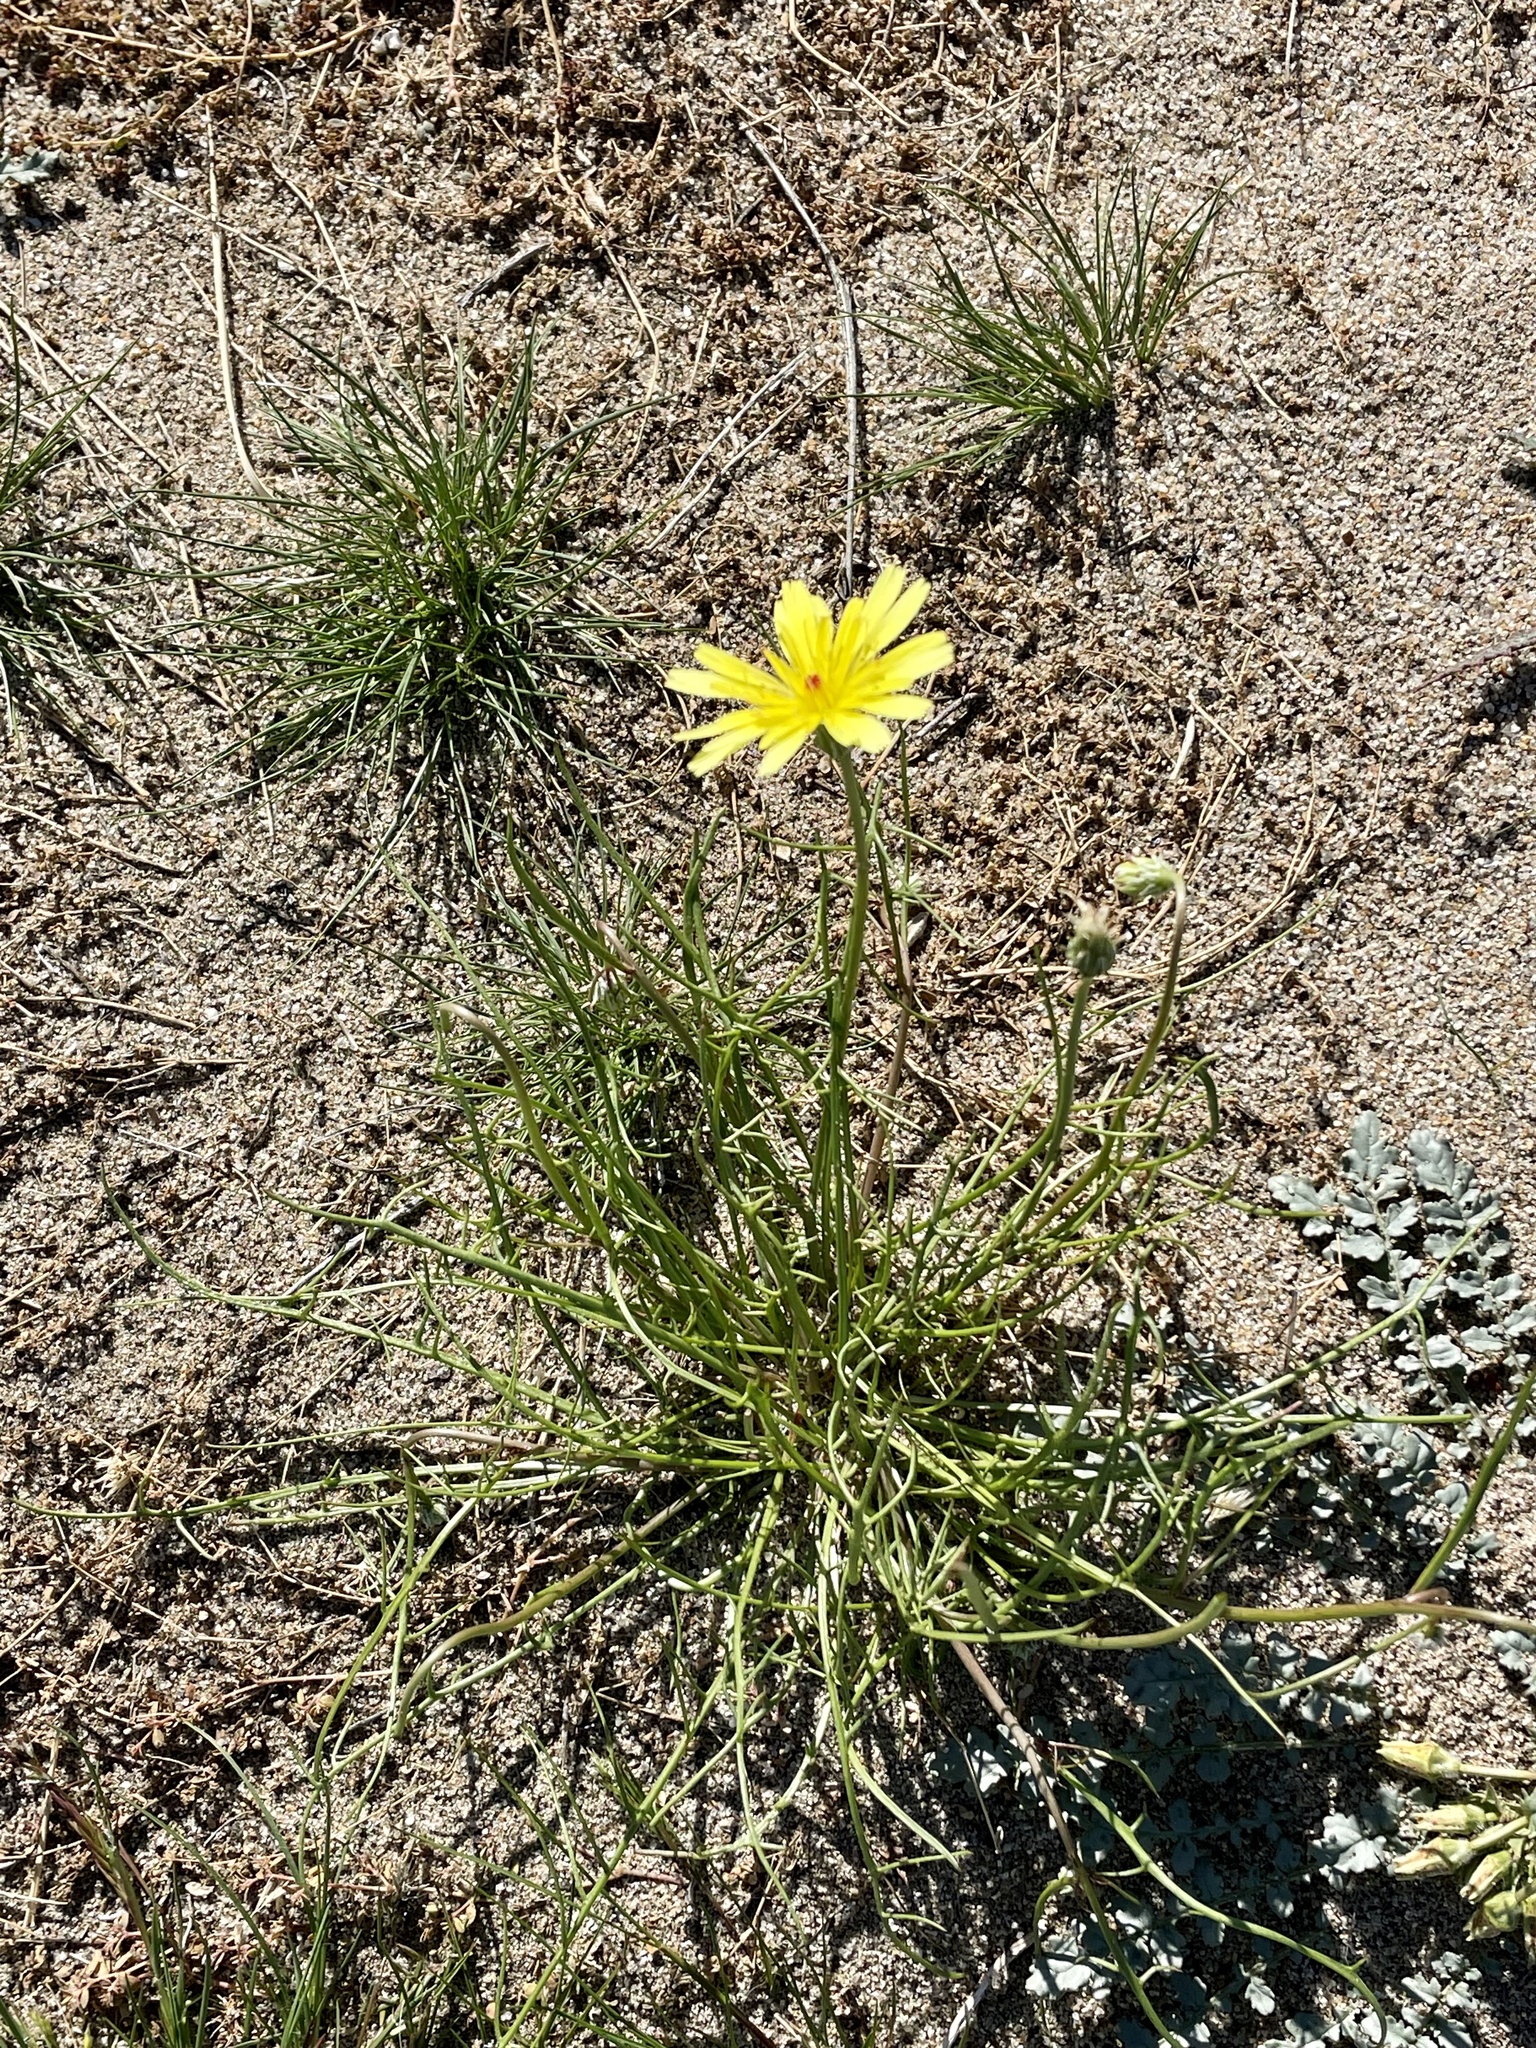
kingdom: Plantae
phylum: Tracheophyta
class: Magnoliopsida
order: Asterales
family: Asteraceae
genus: Malacothrix
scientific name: Malacothrix glabrata
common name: Smooth desert-dandelion
